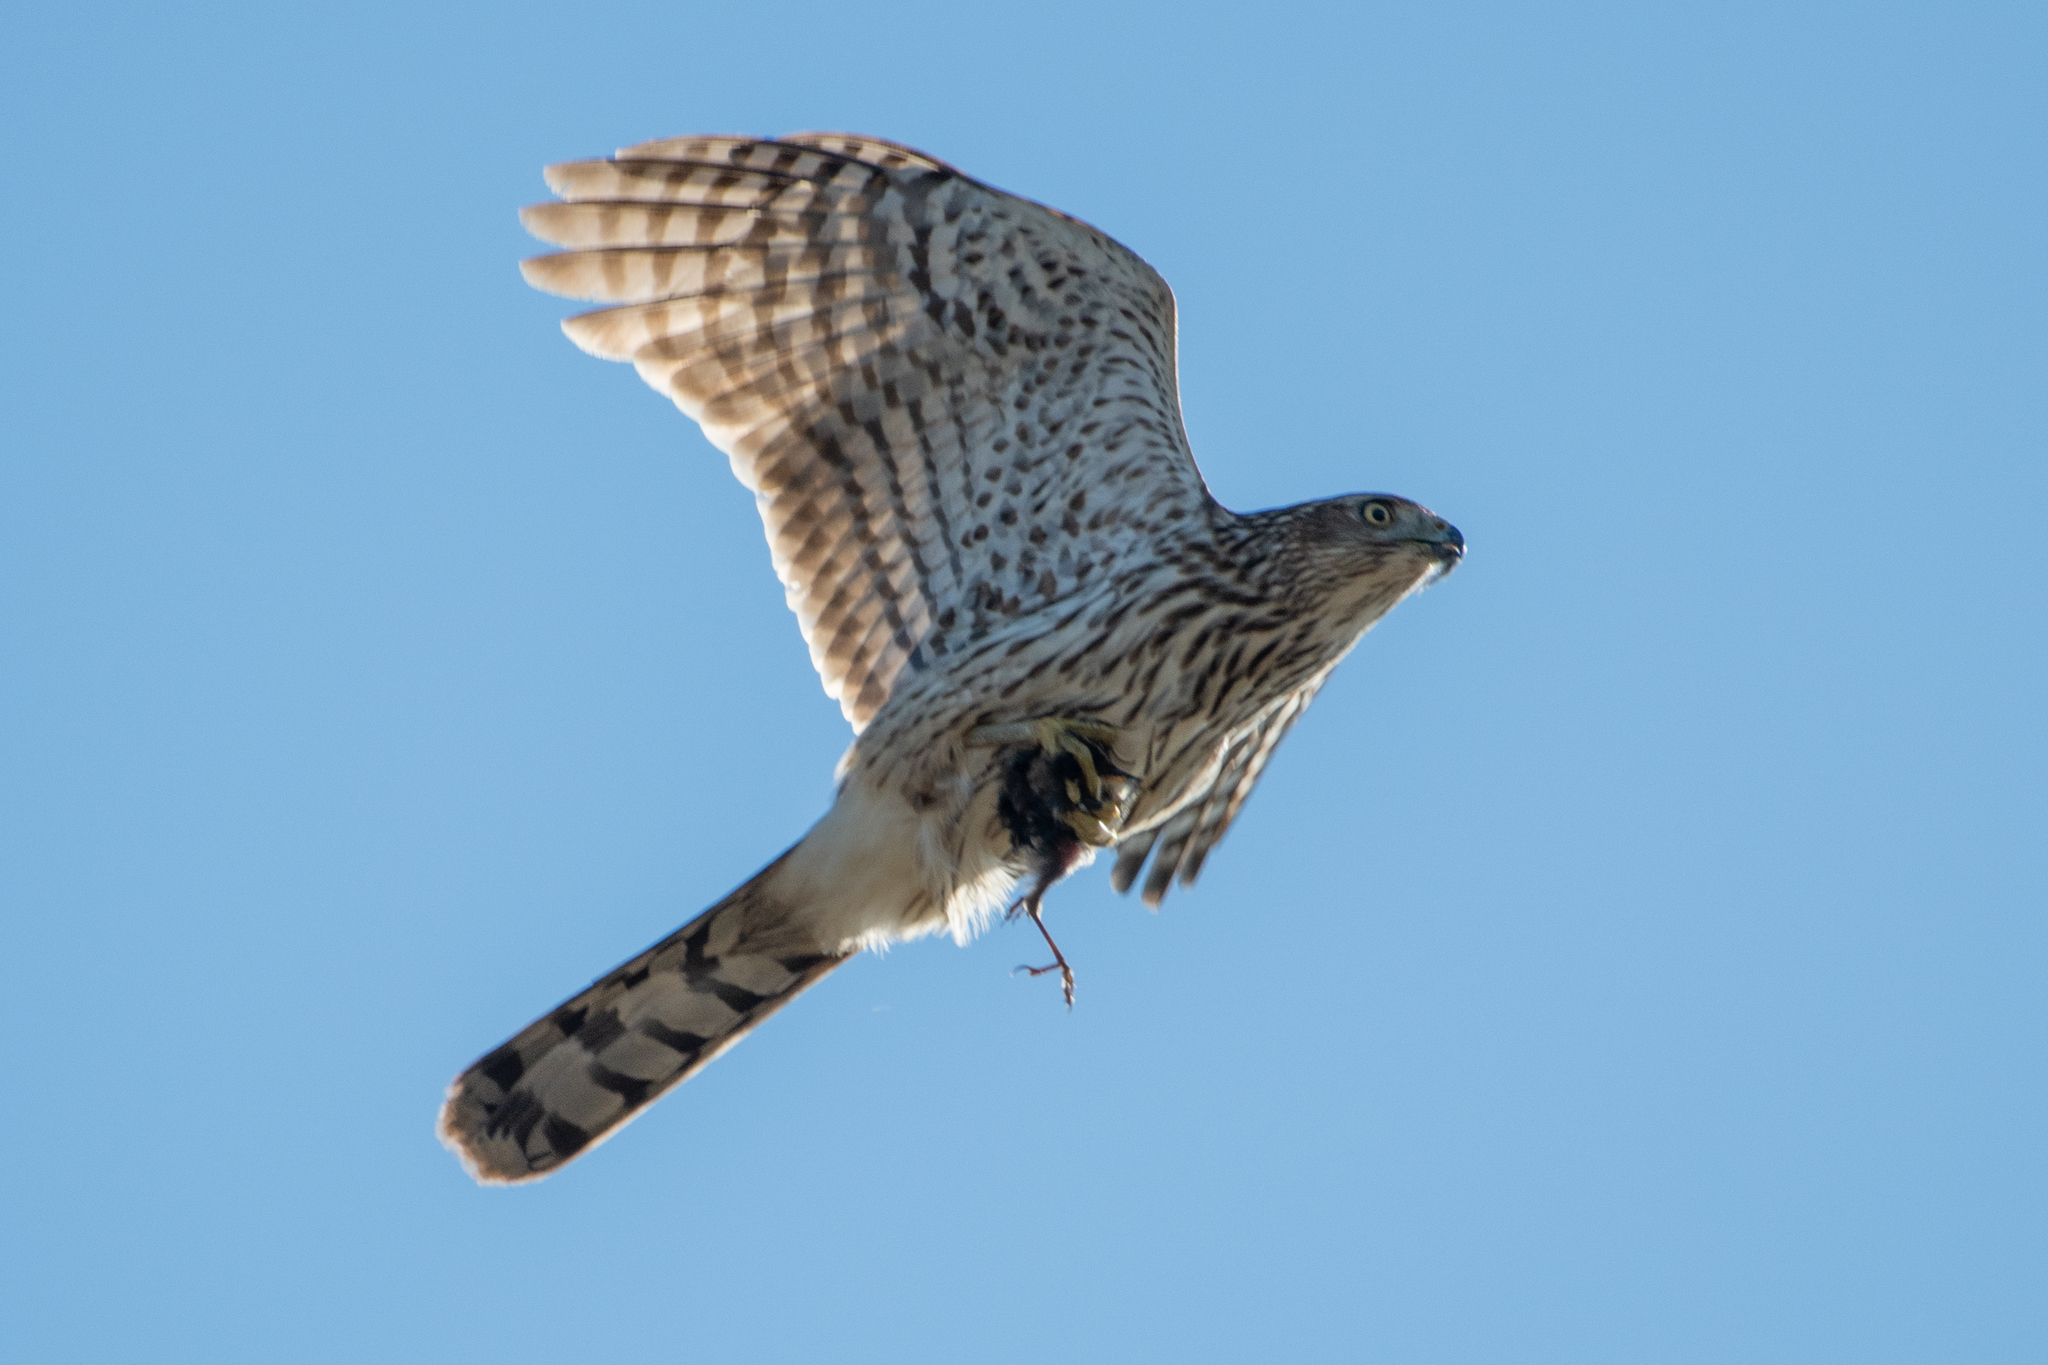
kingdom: Animalia
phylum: Chordata
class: Aves
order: Accipitriformes
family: Accipitridae
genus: Accipiter
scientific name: Accipiter cooperii
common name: Cooper's hawk
